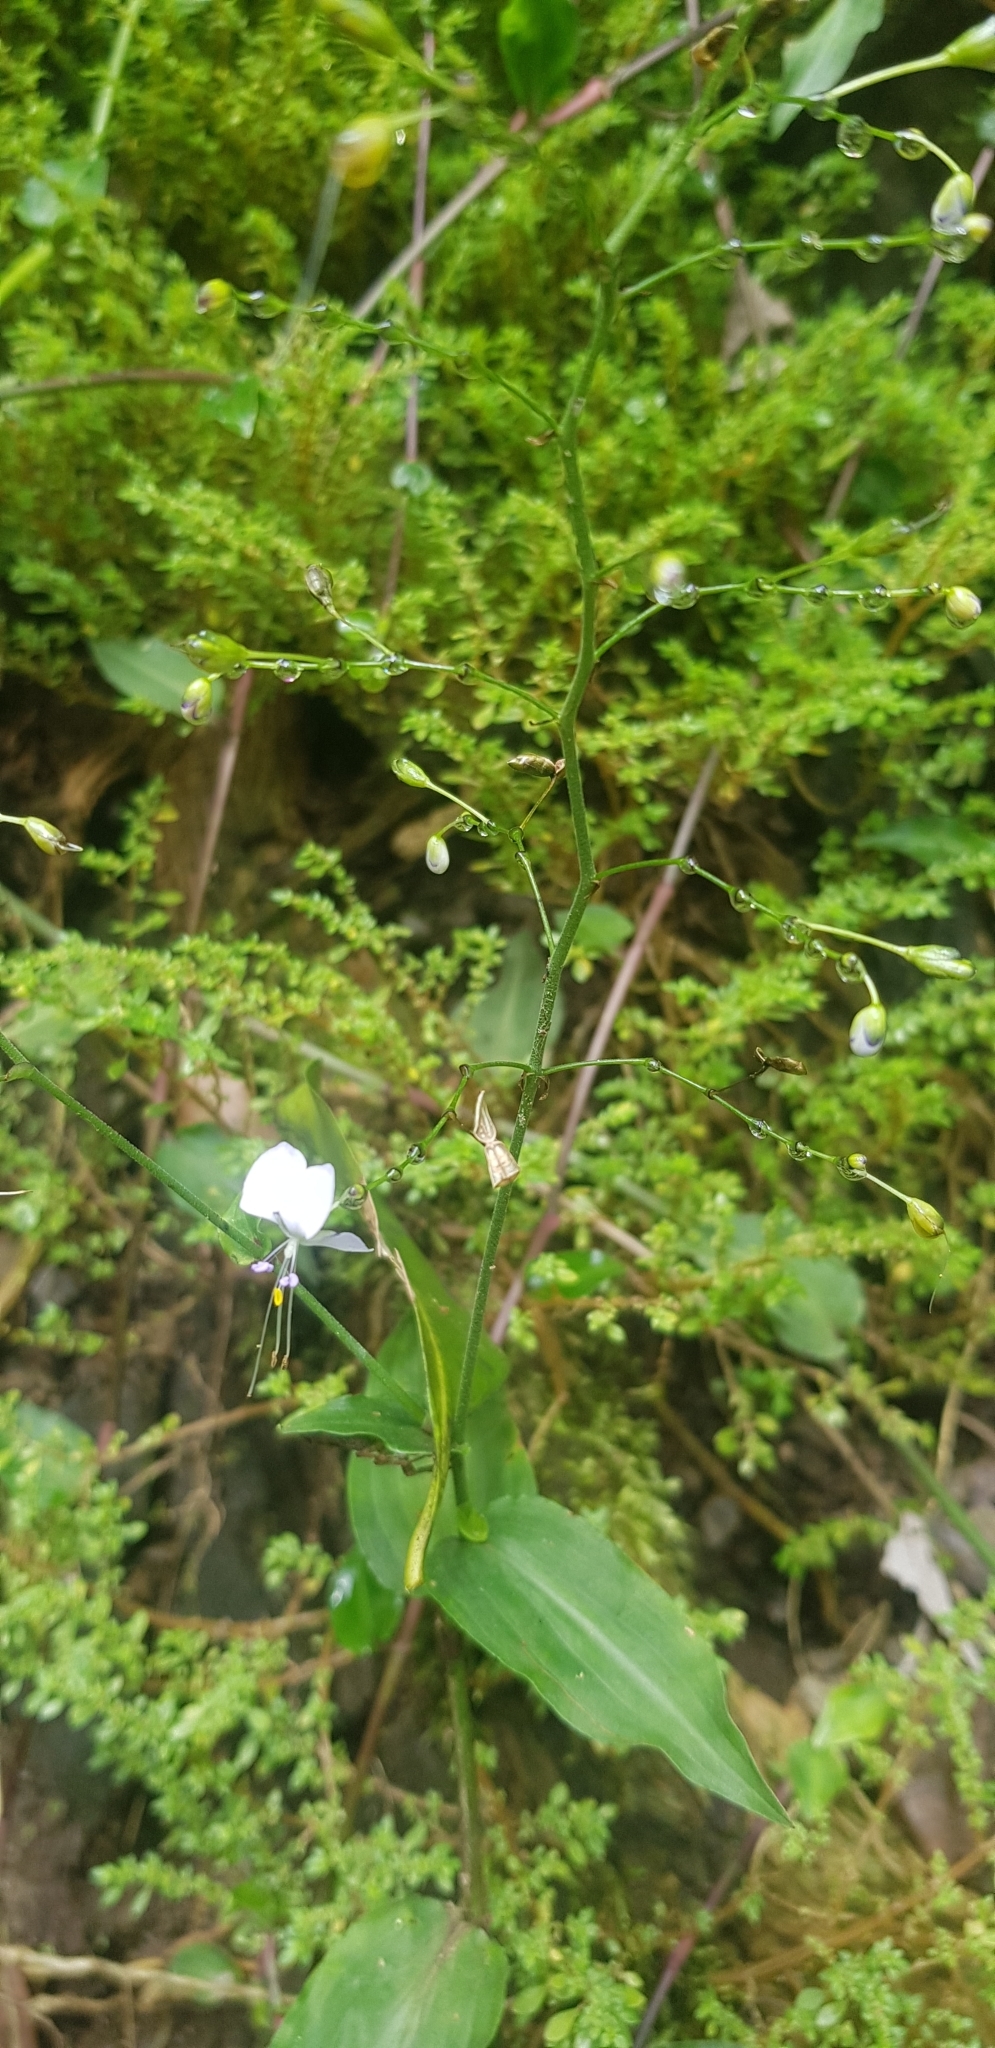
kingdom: Plantae
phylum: Tracheophyta
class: Liliopsida
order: Commelinales
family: Commelinaceae
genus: Aneilema
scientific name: Aneilema acuminatum
